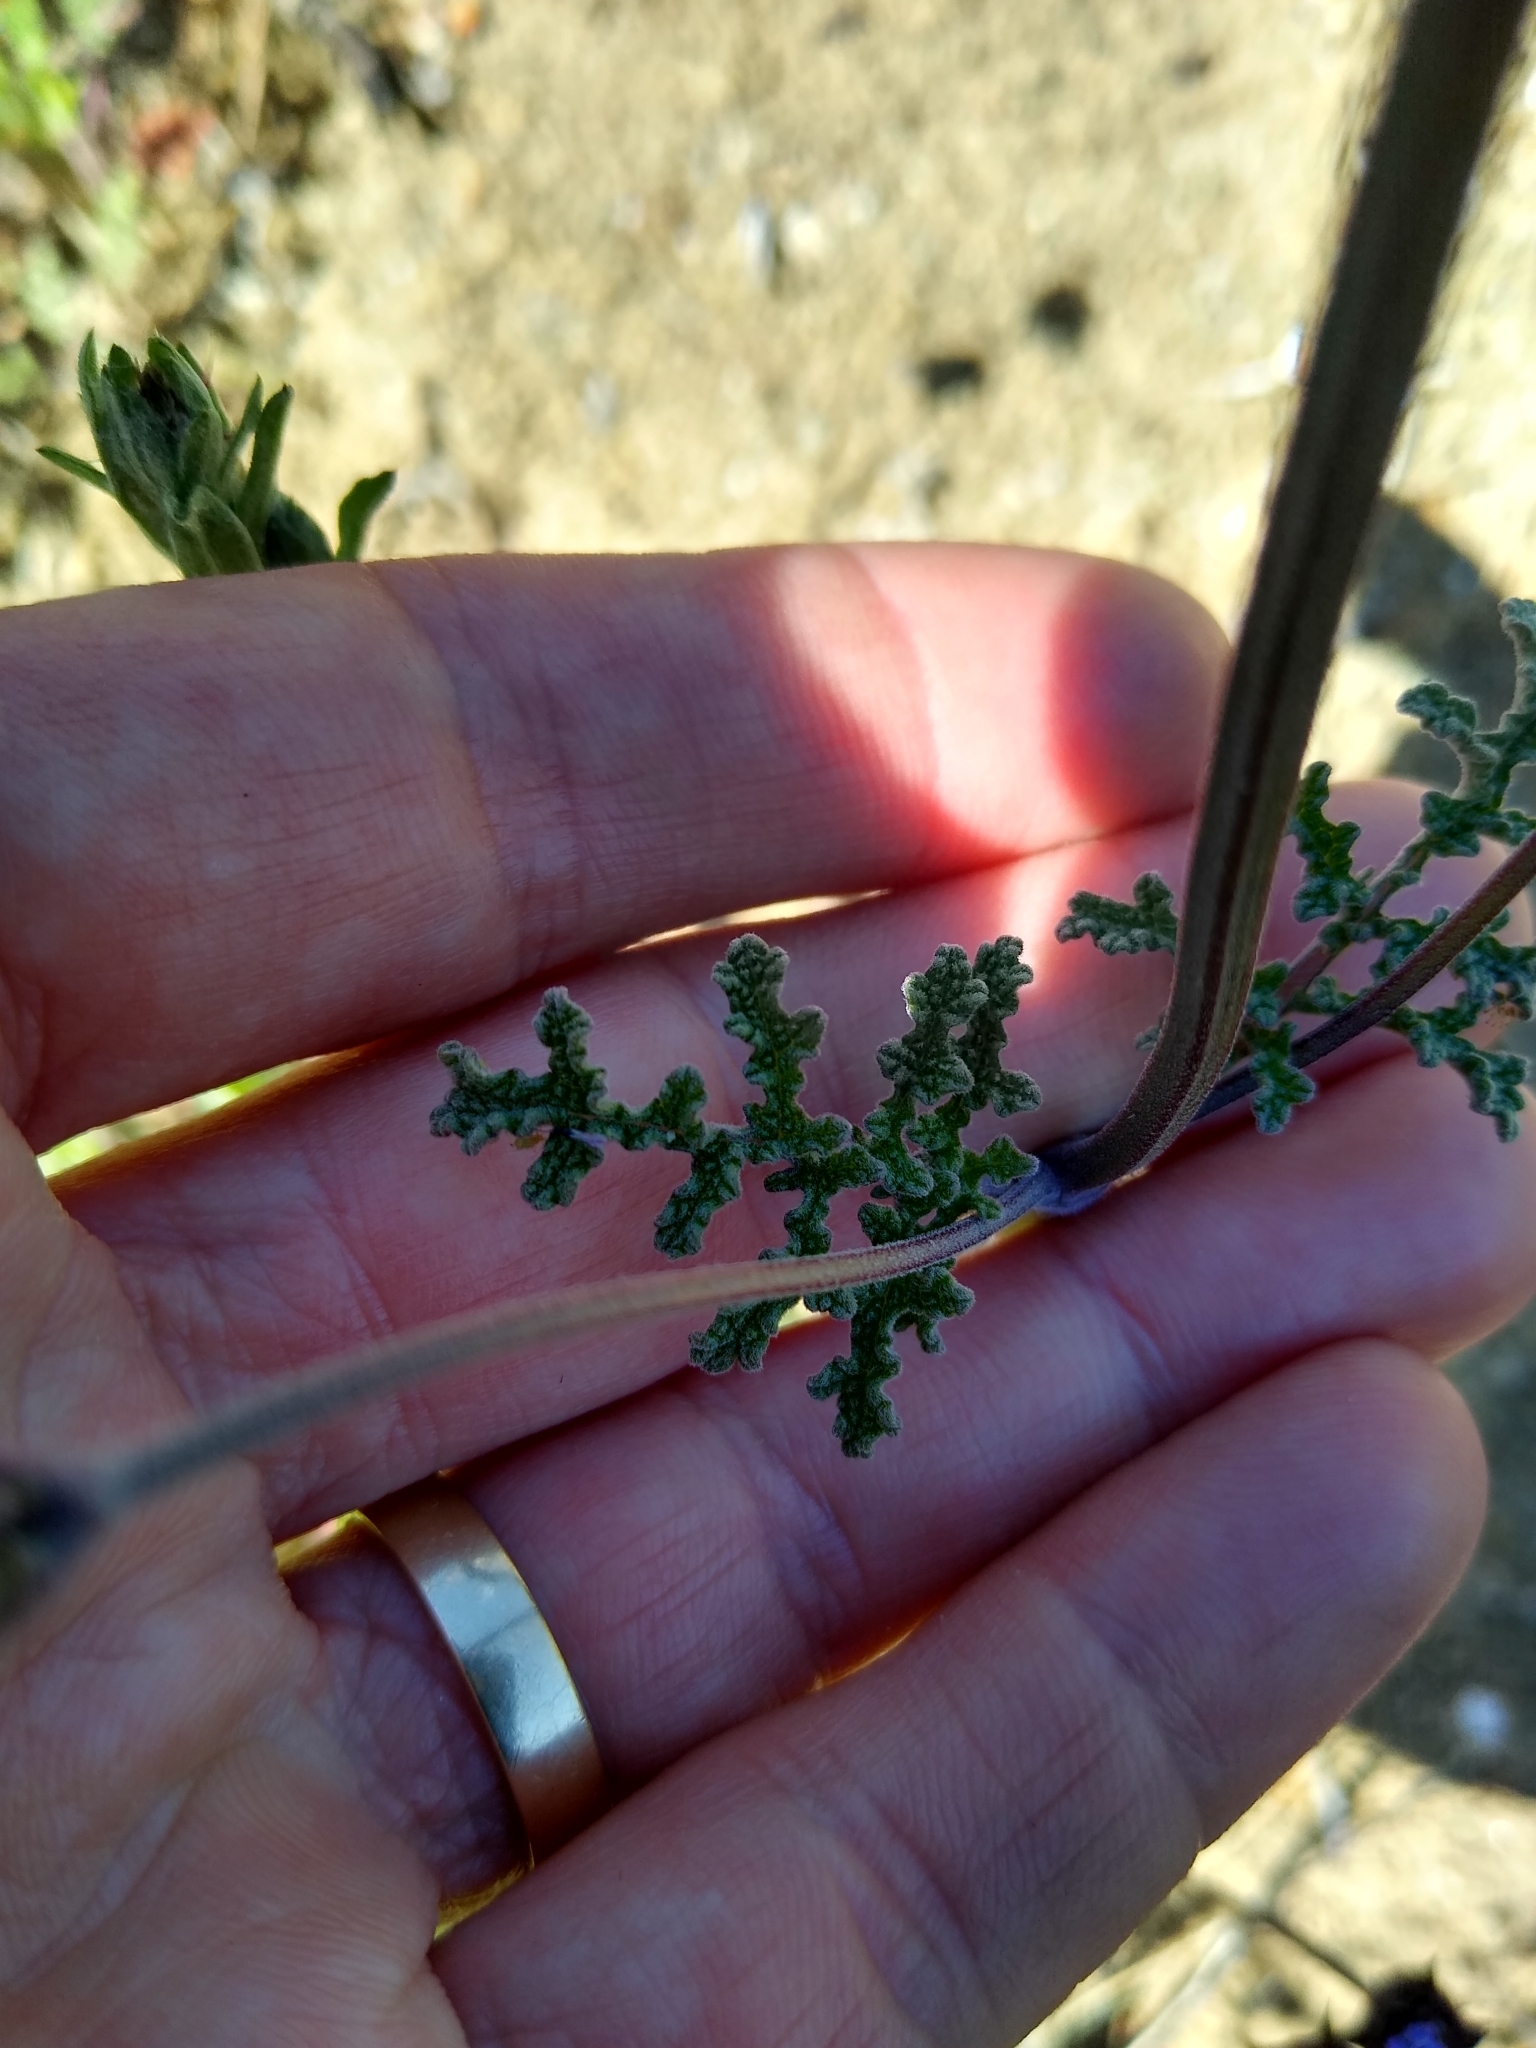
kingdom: Plantae
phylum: Tracheophyta
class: Magnoliopsida
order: Lamiales
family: Lamiaceae
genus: Salvia
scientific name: Salvia columbariae
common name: Chia
